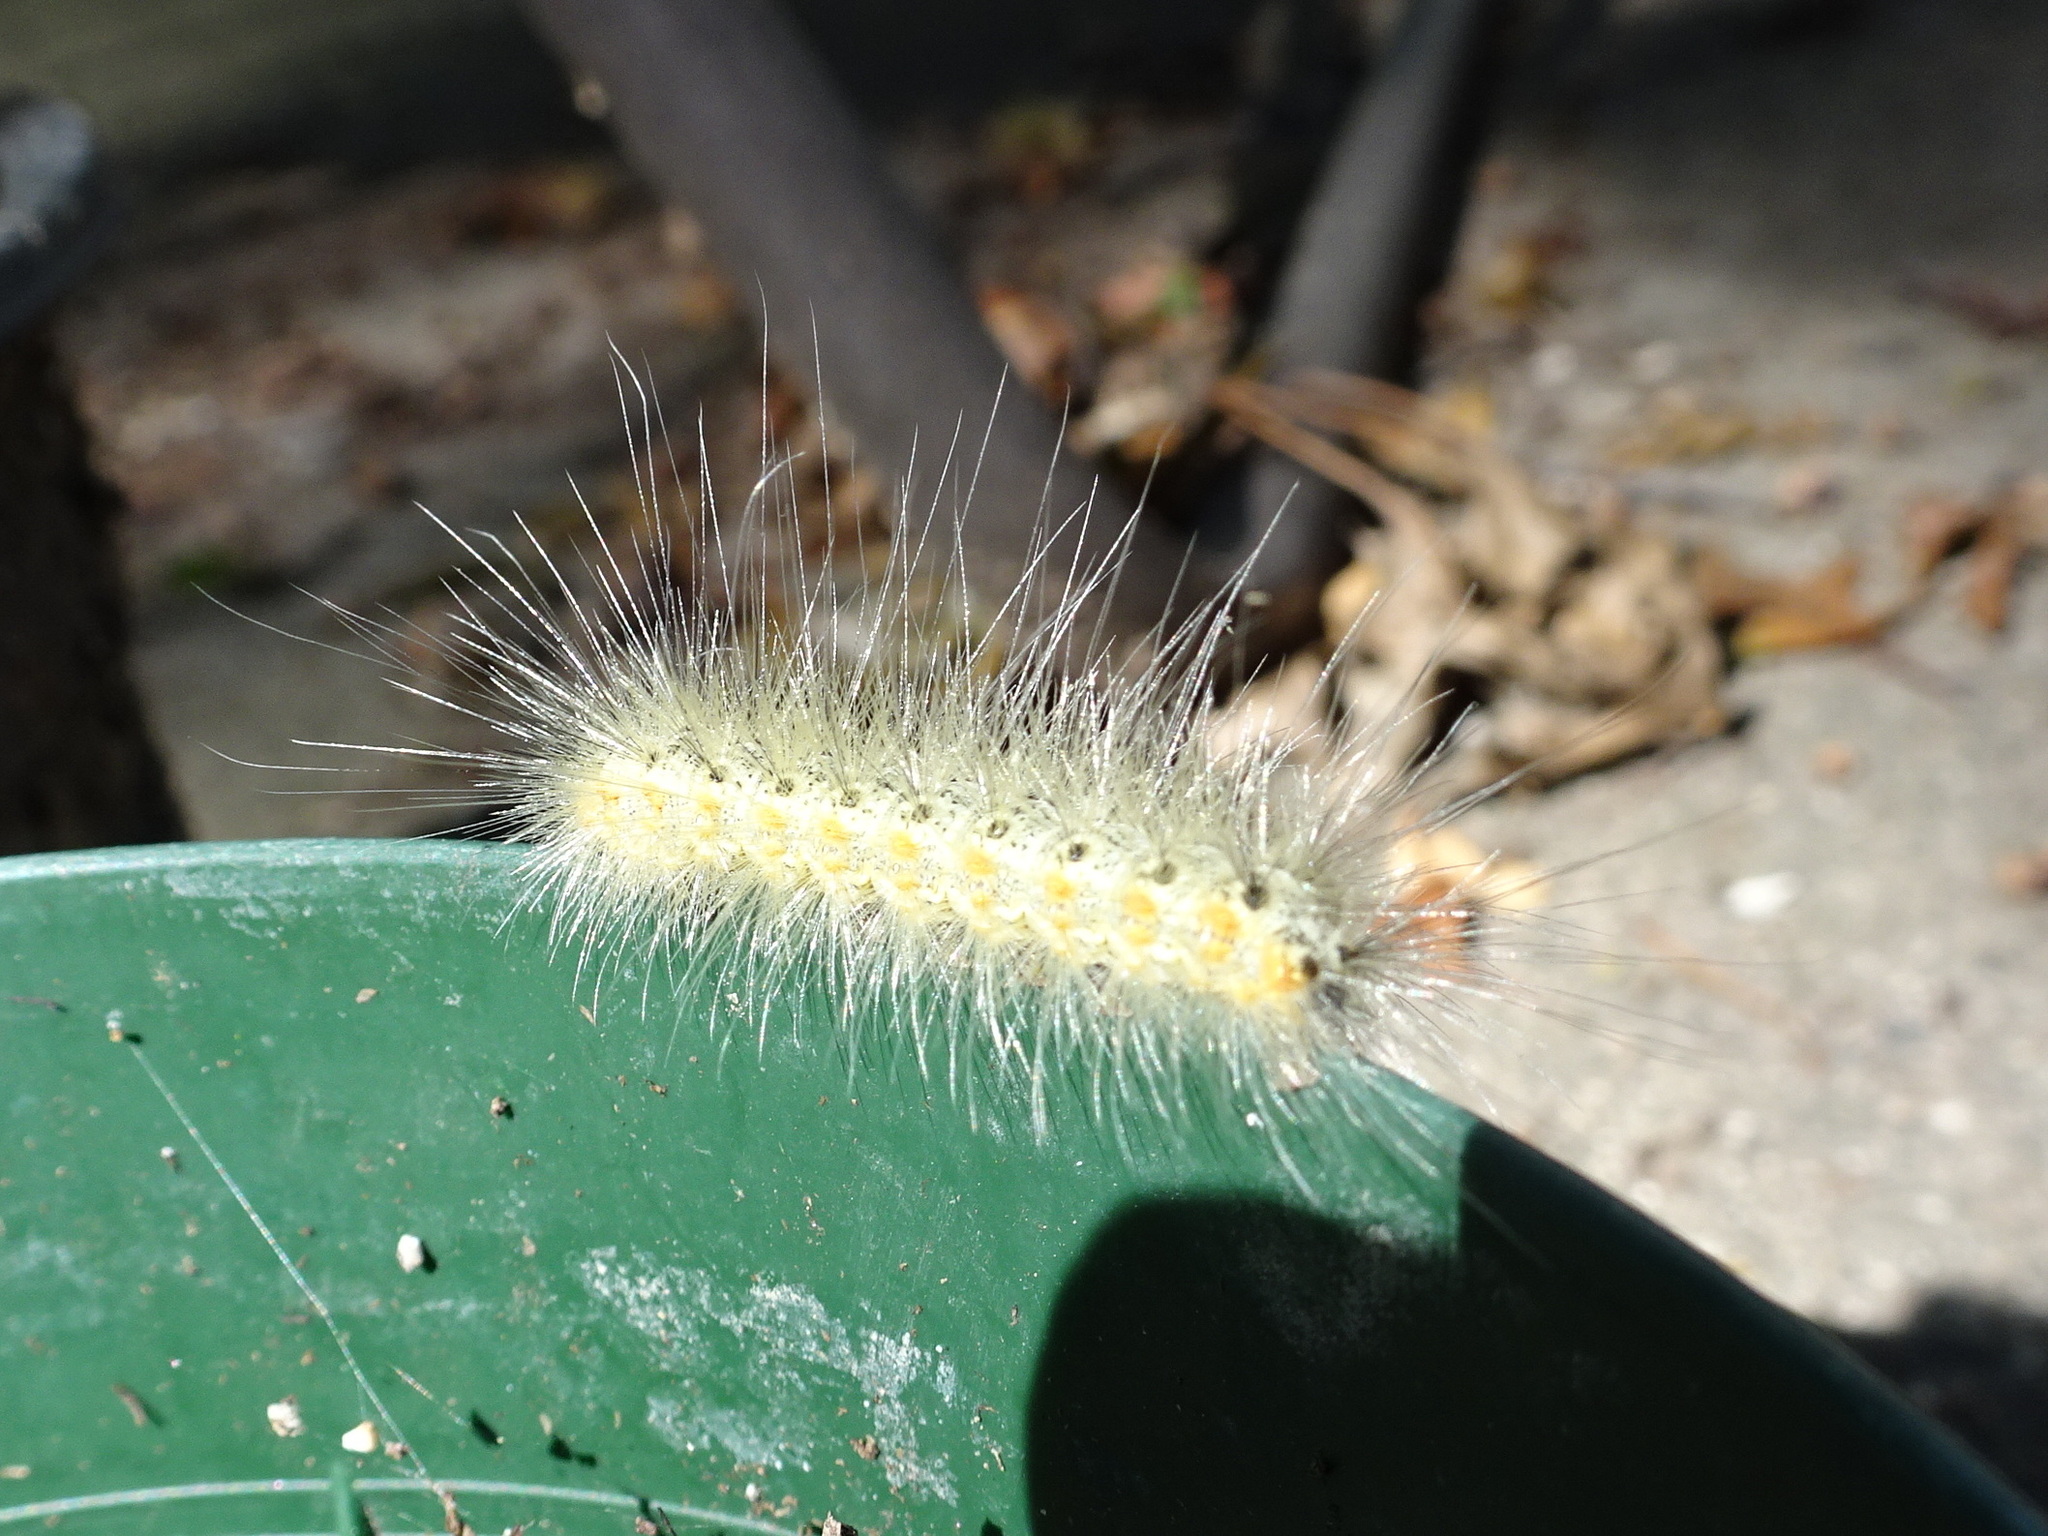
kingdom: Animalia
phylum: Arthropoda
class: Insecta
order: Lepidoptera
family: Erebidae
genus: Hyphantria
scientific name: Hyphantria cunea
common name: American white moth
